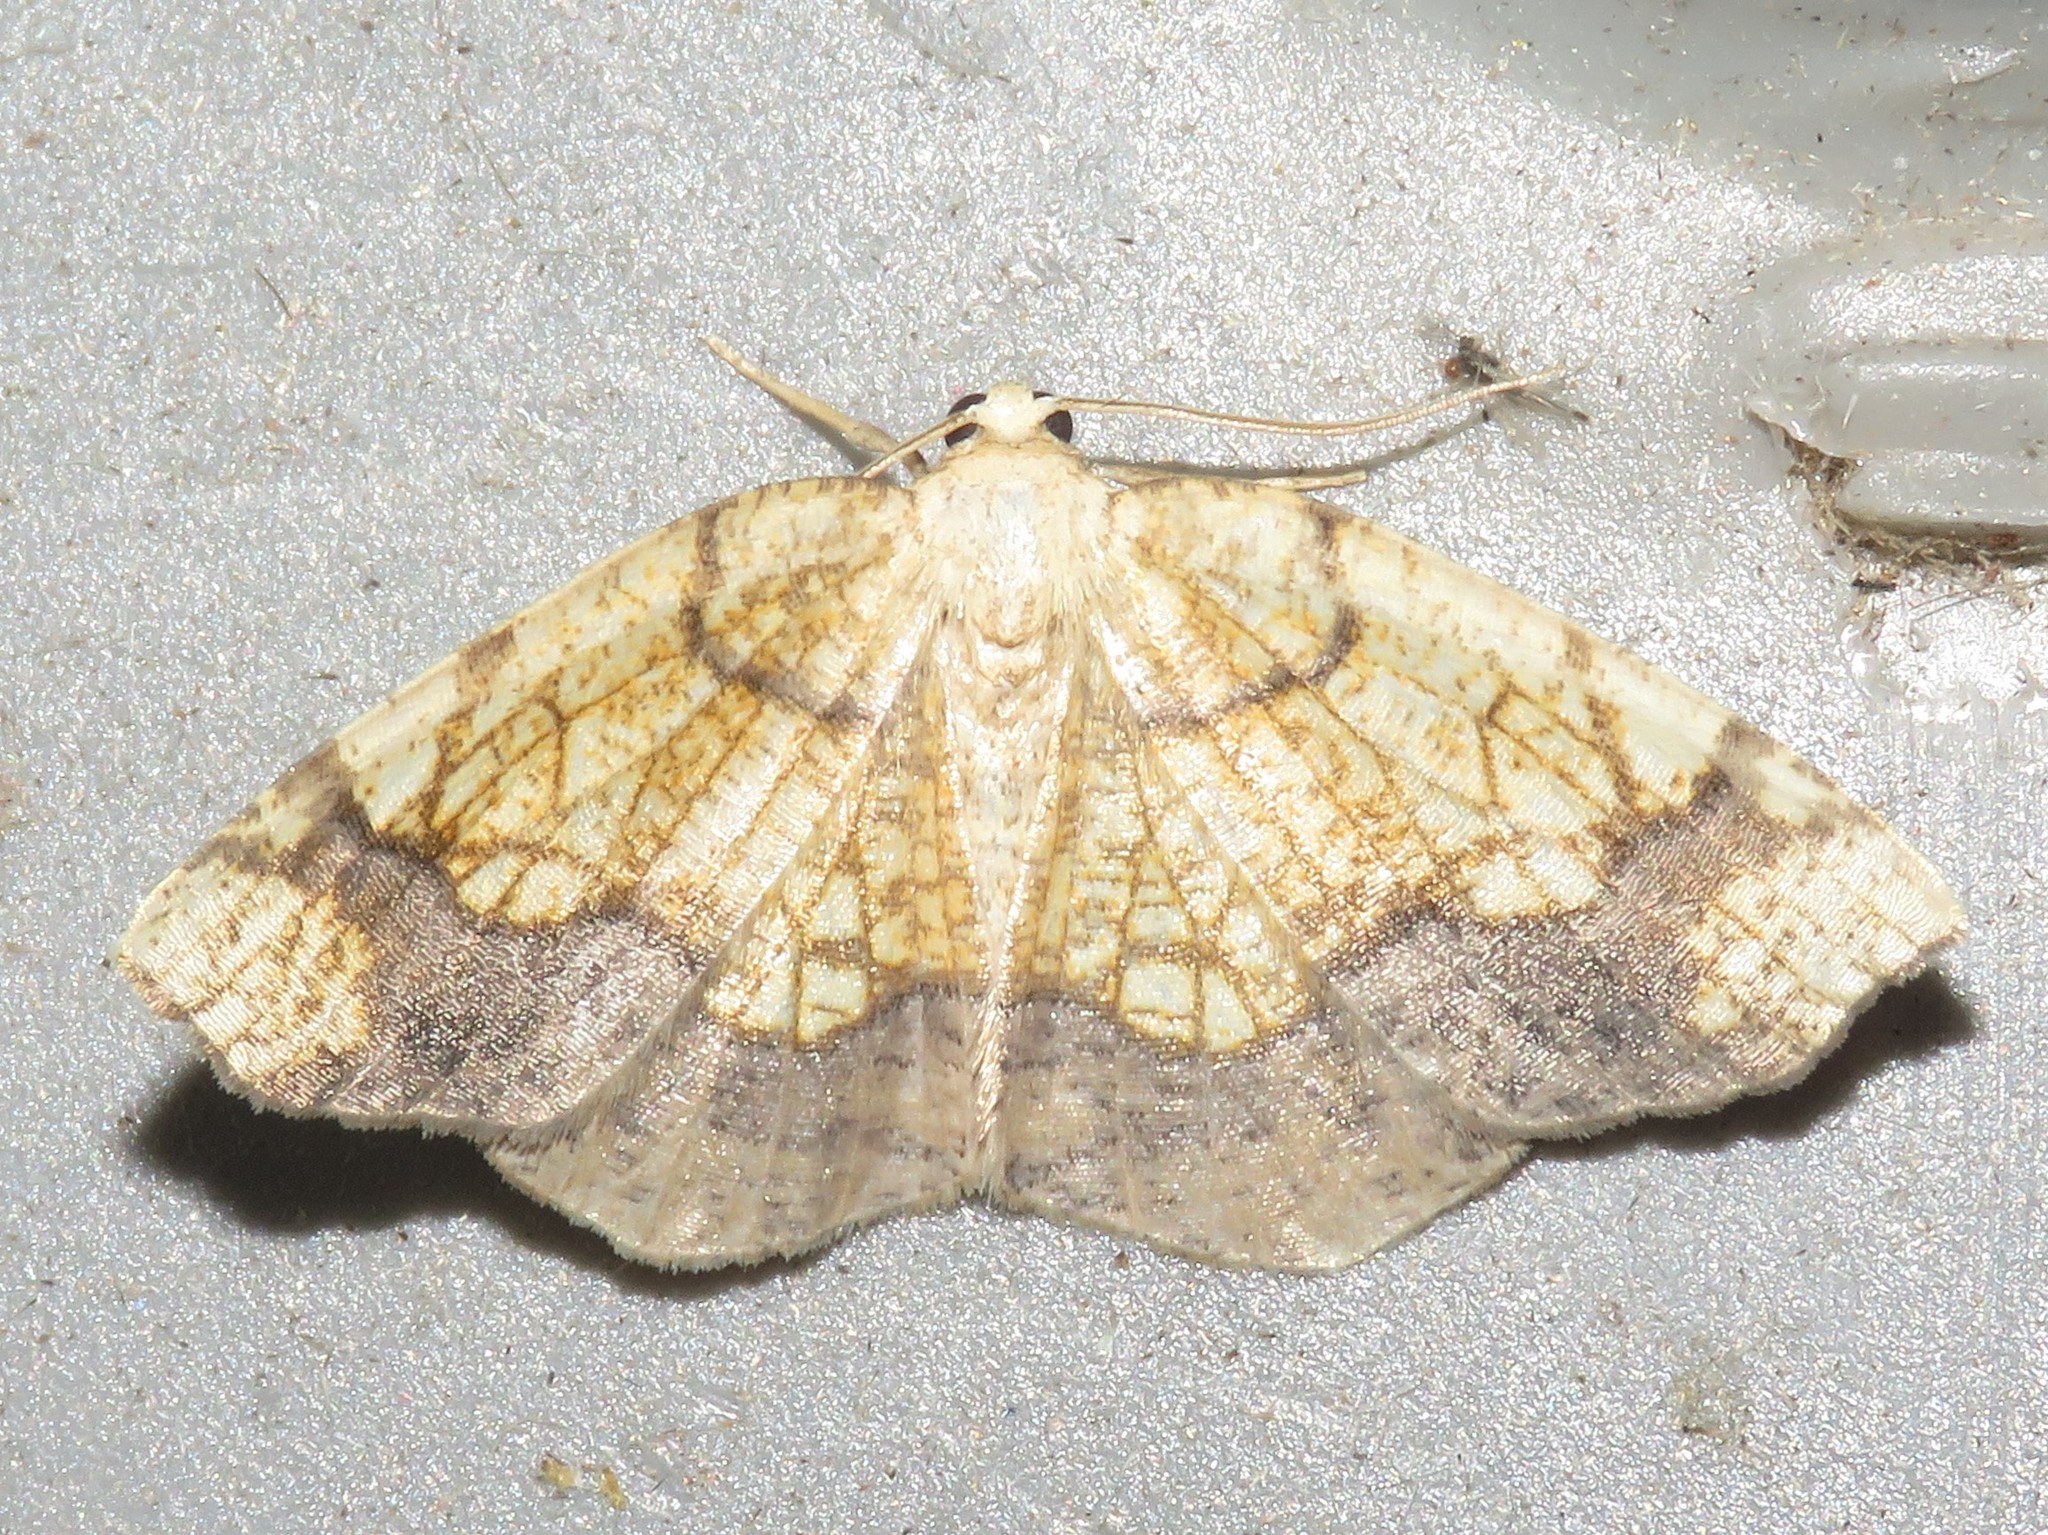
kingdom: Animalia
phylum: Arthropoda
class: Insecta
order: Lepidoptera
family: Geometridae
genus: Nematocampa
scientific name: Nematocampa resistaria
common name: Horned spanworm moth
